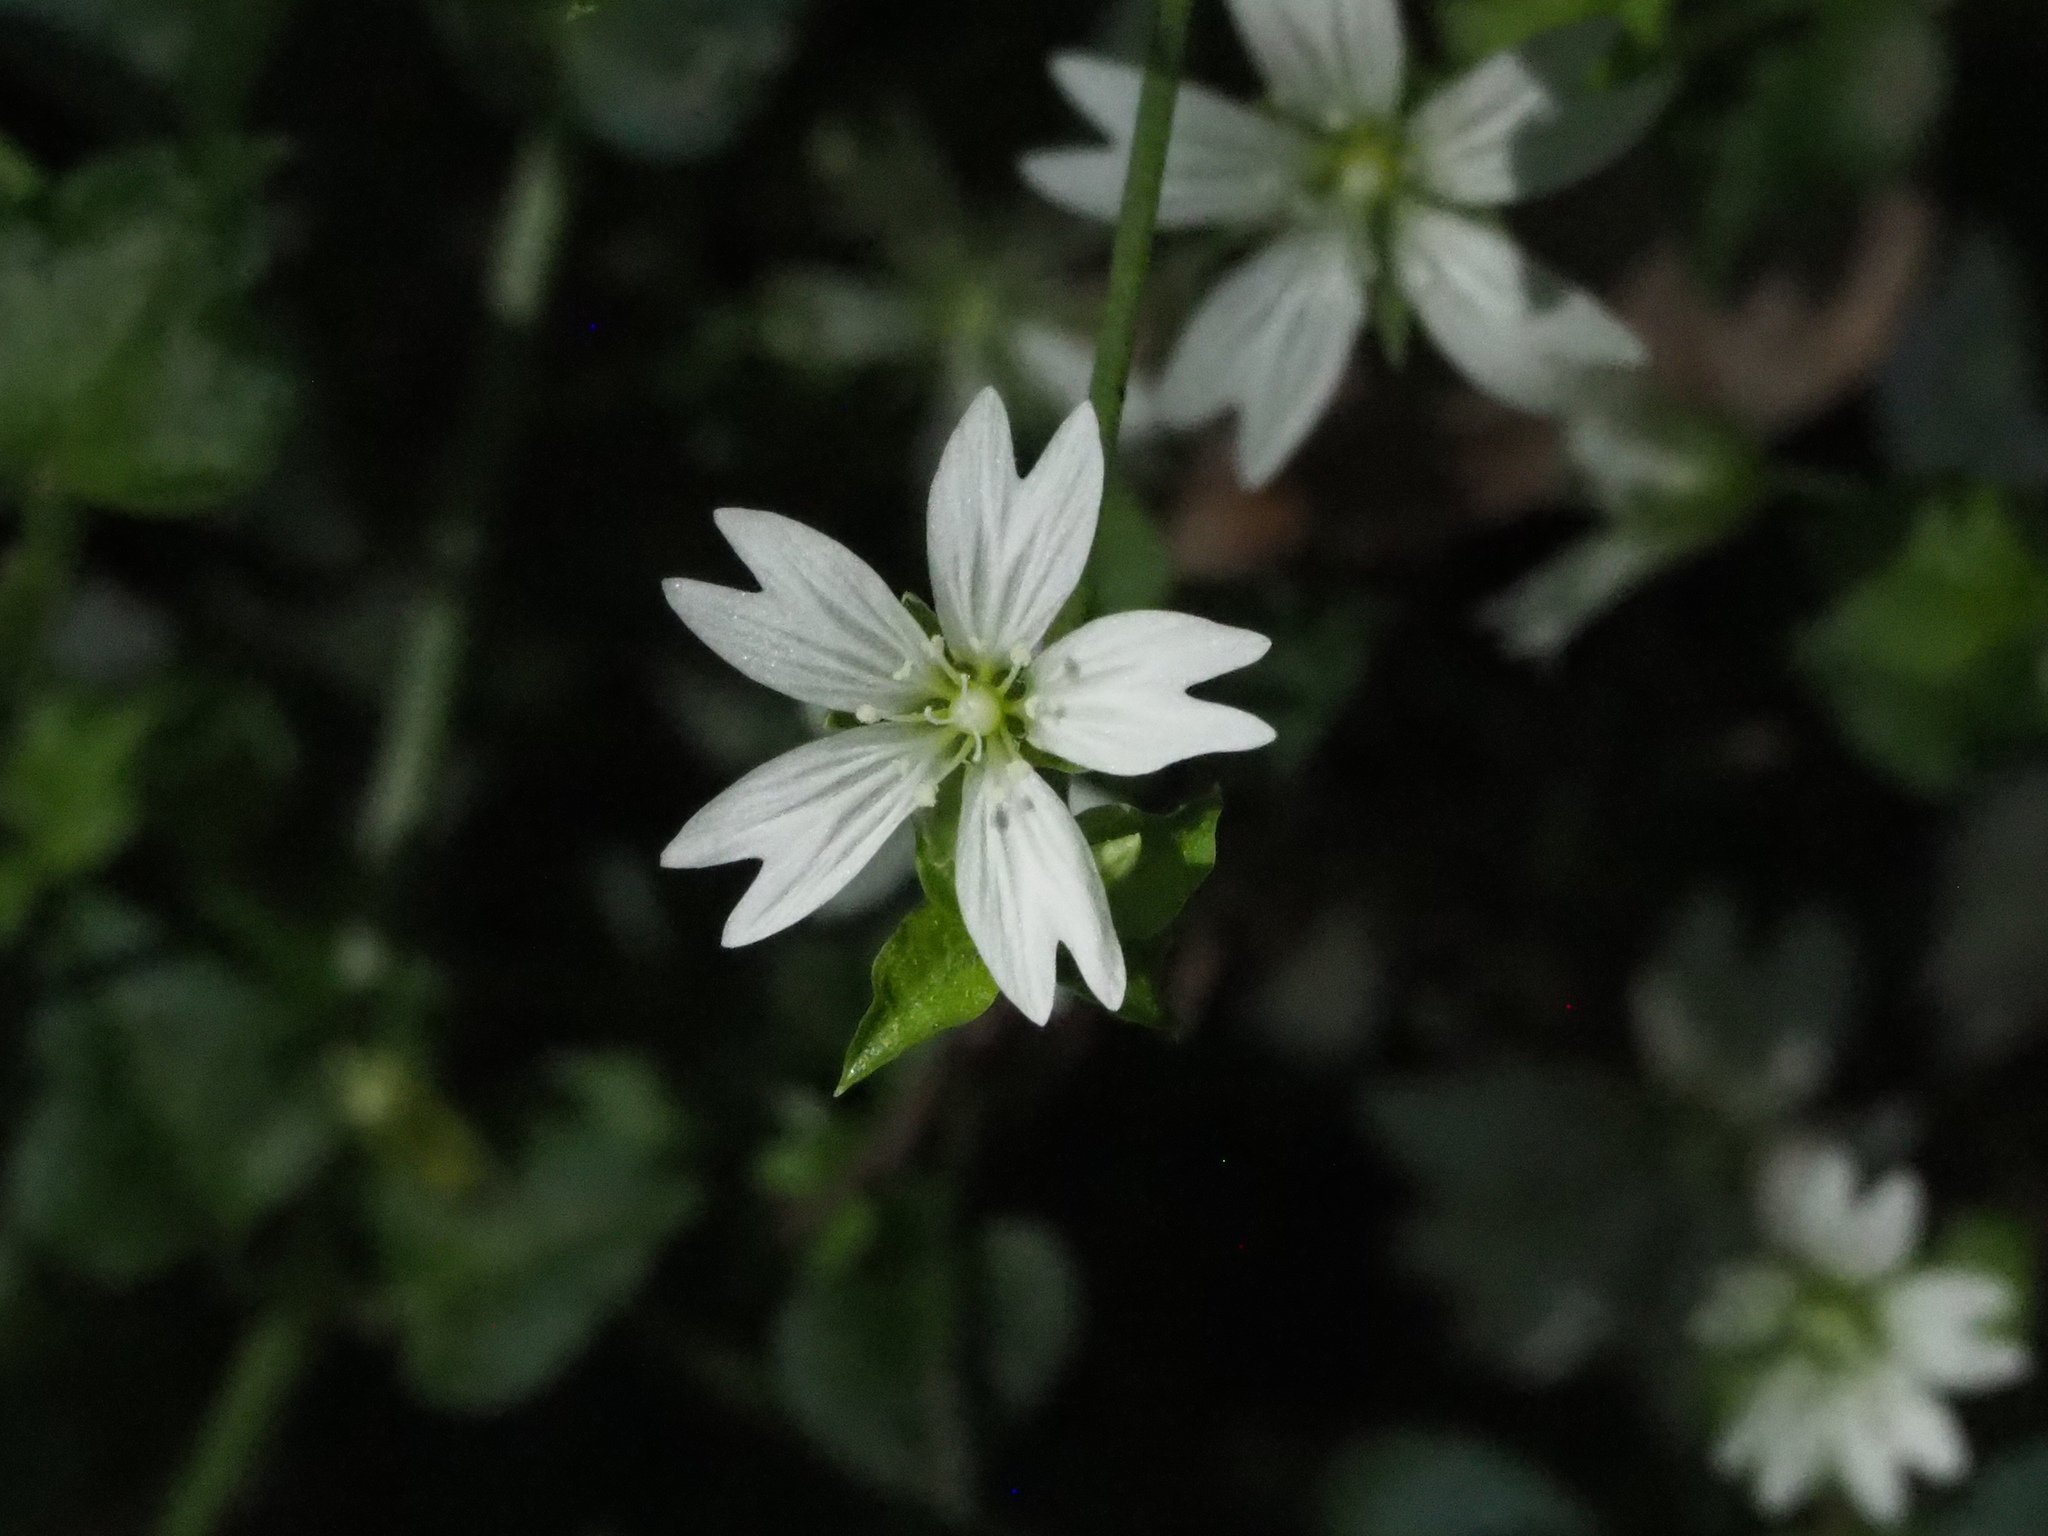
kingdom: Plantae
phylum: Tracheophyta
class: Magnoliopsida
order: Caryophyllales
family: Caryophyllaceae
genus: Nubelaria
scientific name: Nubelaria arisanensis
